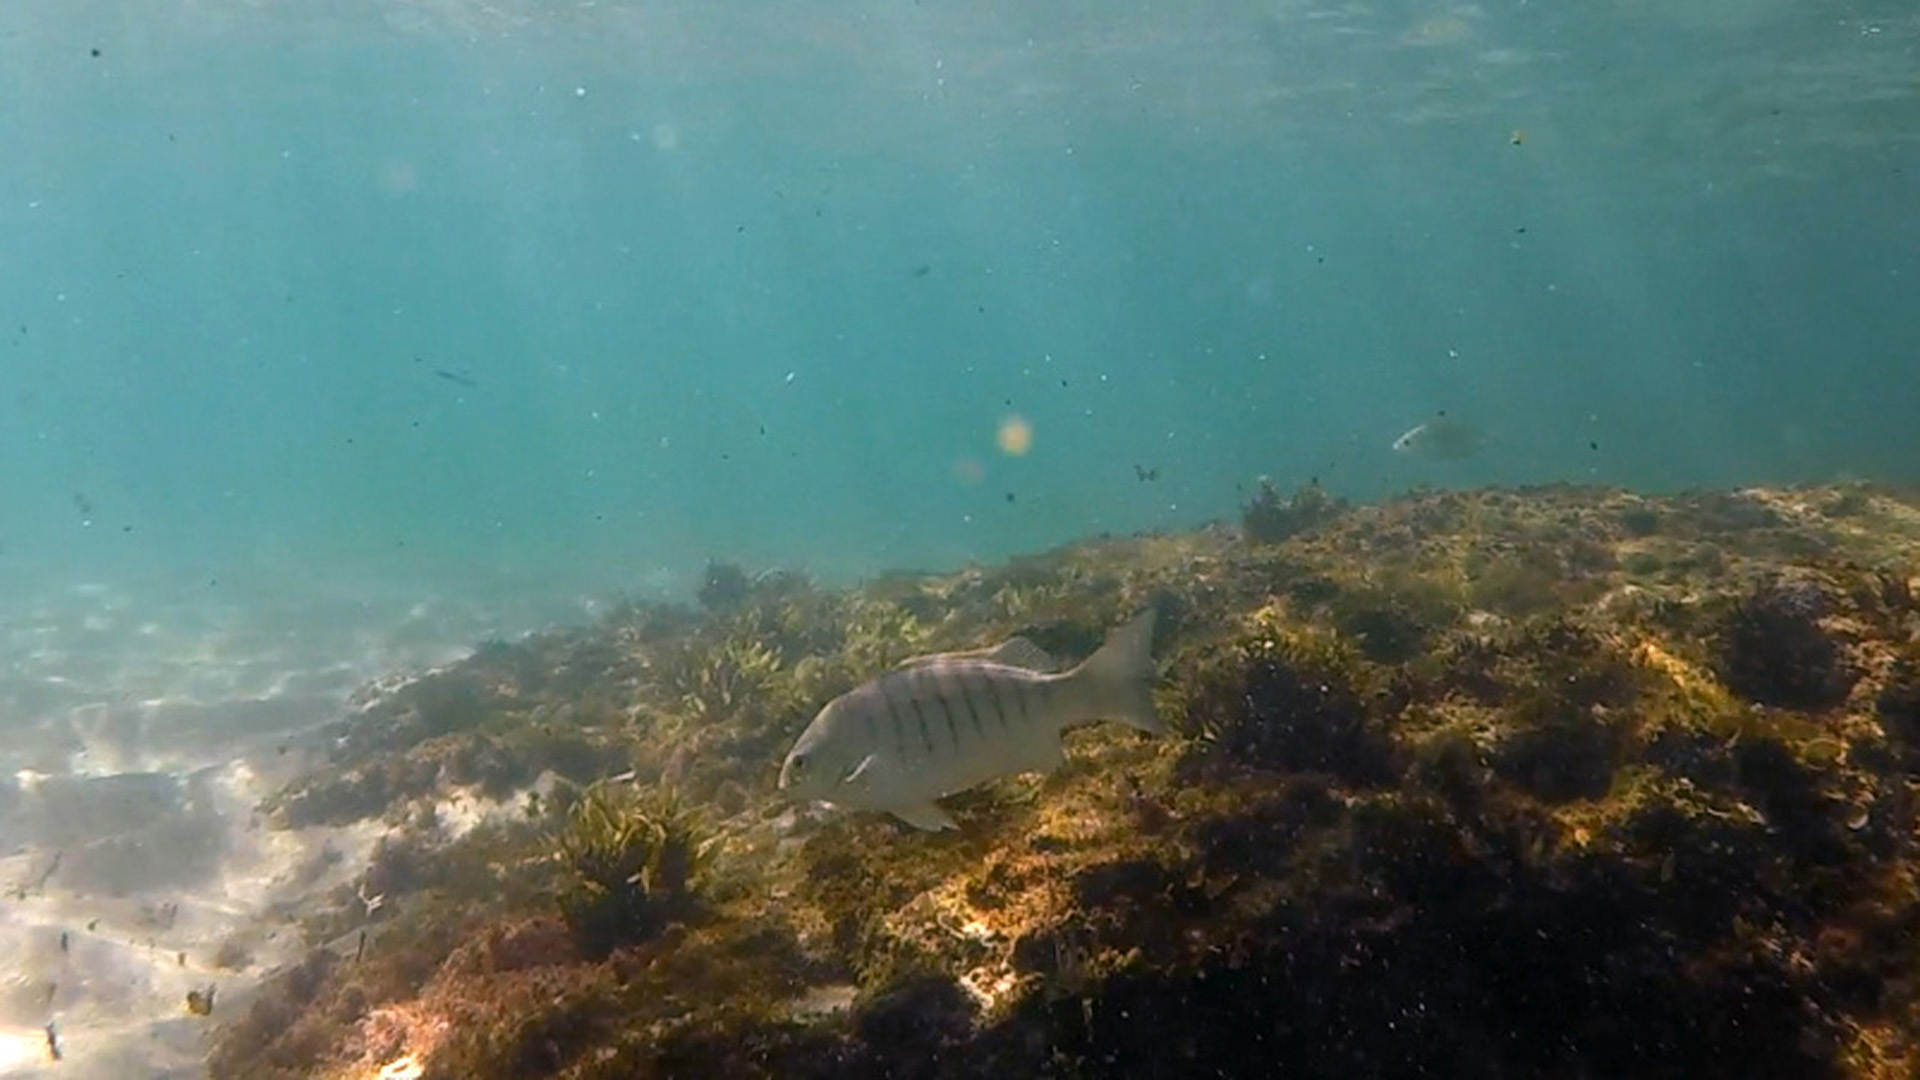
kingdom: Animalia
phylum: Chordata
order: Perciformes
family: Kyphosidae
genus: Girella
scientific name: Girella tricuspidata
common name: Parore
